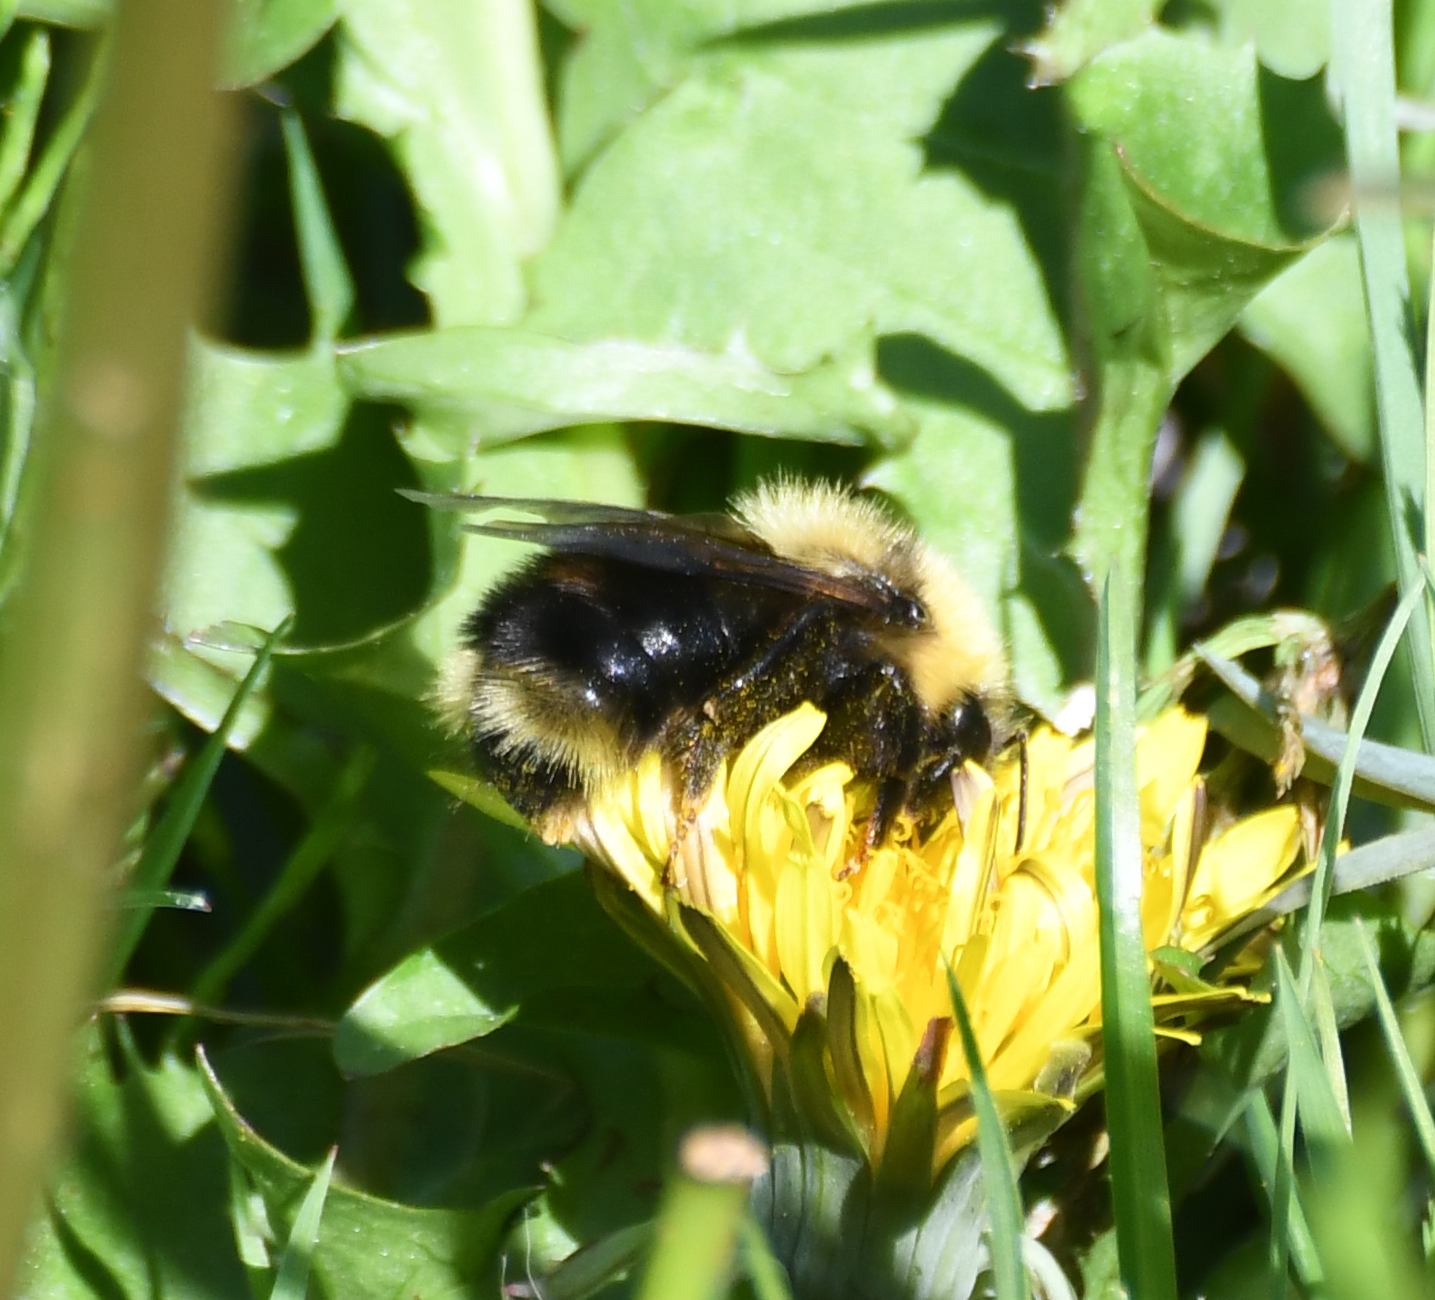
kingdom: Animalia
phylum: Arthropoda
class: Insecta
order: Hymenoptera
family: Apidae
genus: Bombus
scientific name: Bombus flavidus
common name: Fernald cuckoo bumble bee
